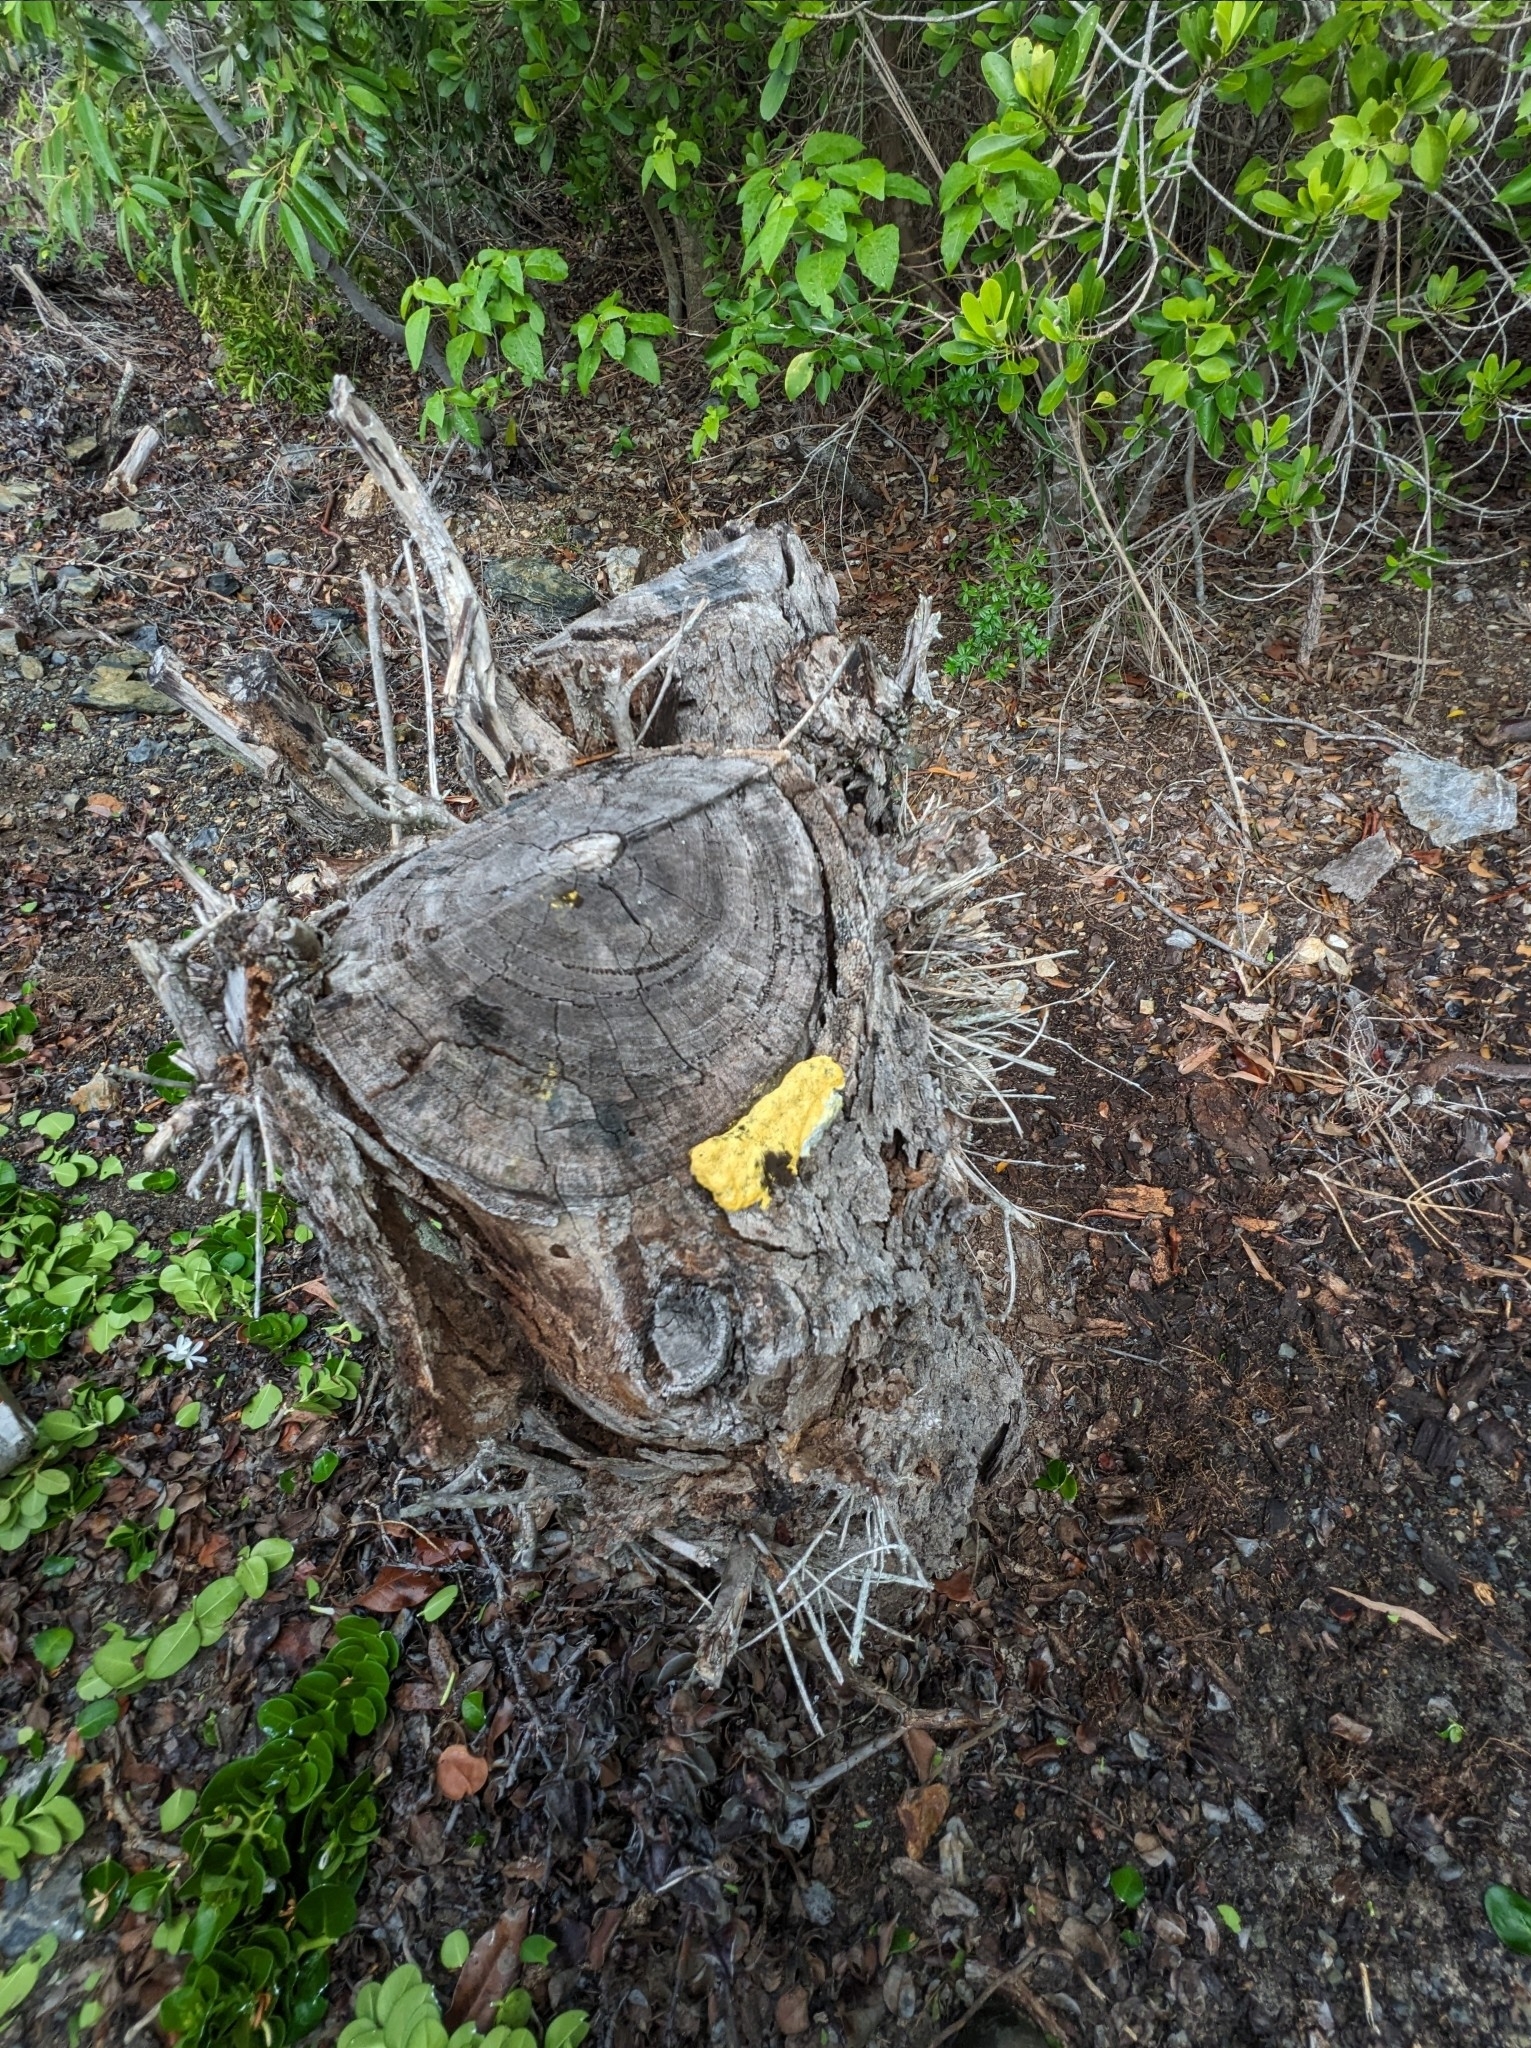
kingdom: Protozoa
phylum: Mycetozoa
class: Myxomycetes
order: Physarales
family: Physaraceae
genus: Fuligo
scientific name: Fuligo septica
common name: Dog vomit slime mold
